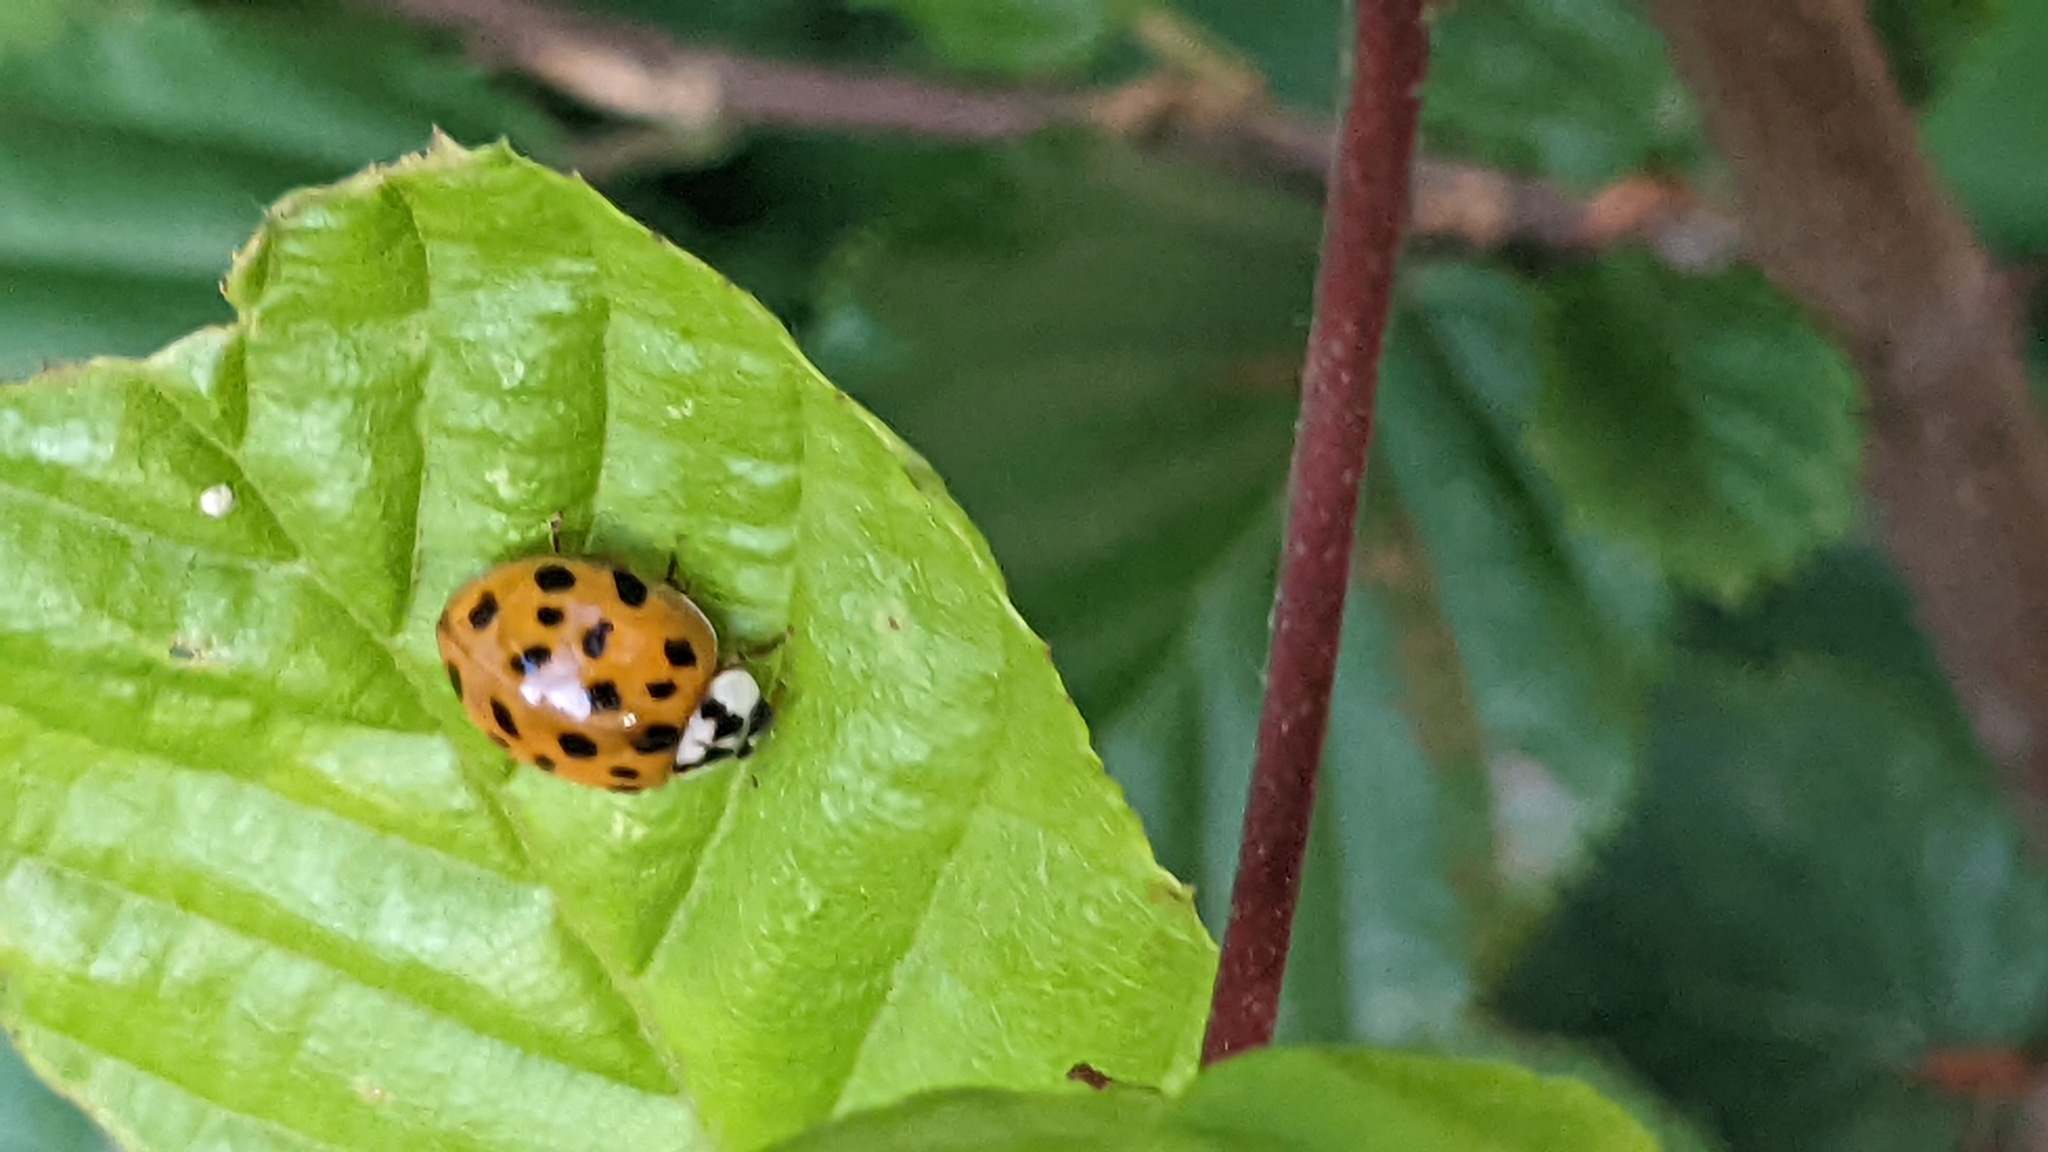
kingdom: Animalia
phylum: Arthropoda
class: Insecta
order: Coleoptera
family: Coccinellidae
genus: Harmonia
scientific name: Harmonia axyridis
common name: Harlequin ladybird
